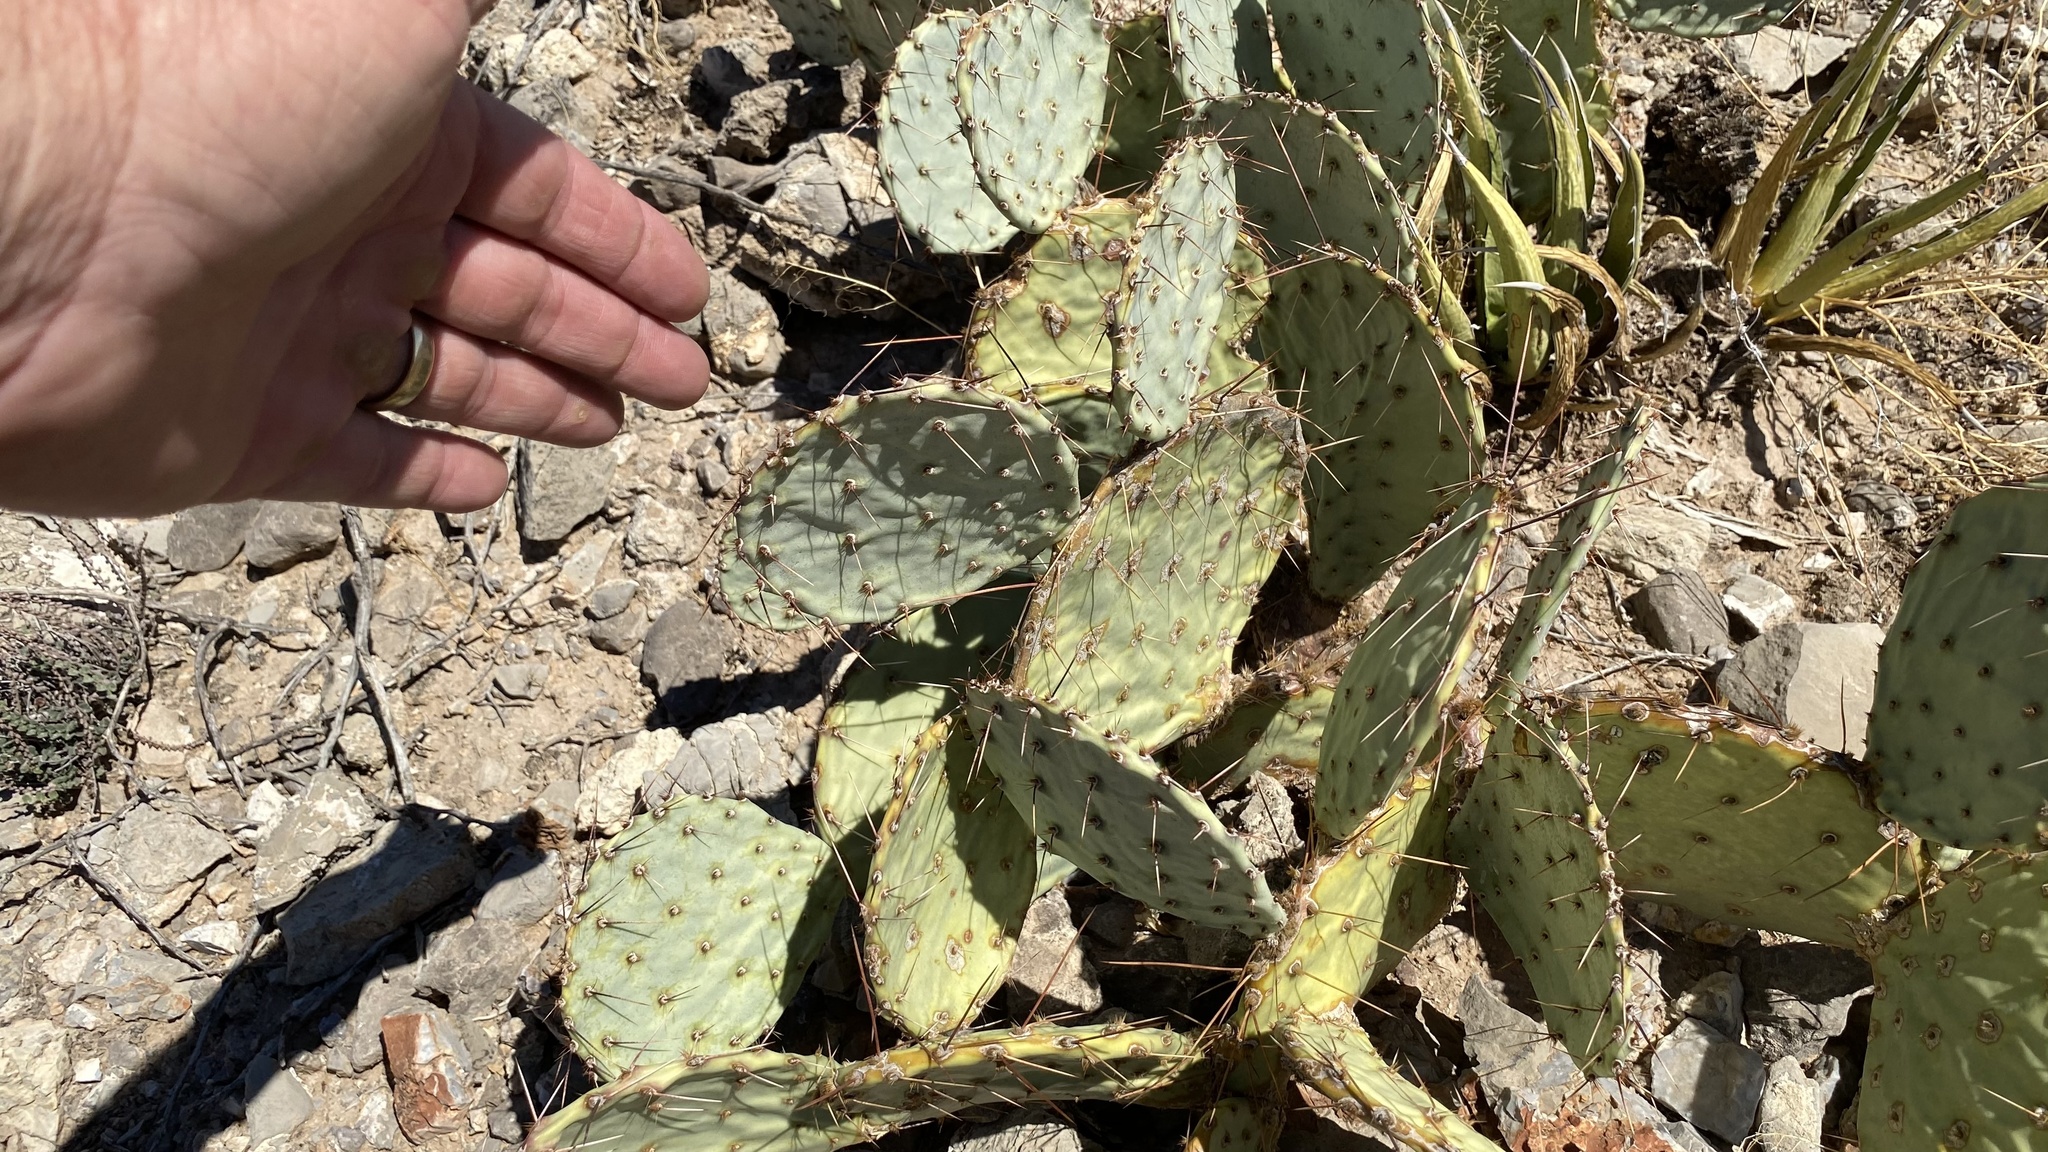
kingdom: Plantae
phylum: Tracheophyta
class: Magnoliopsida
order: Caryophyllales
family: Cactaceae
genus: Opuntia
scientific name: Opuntia phaeacantha
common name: New mexico prickly-pear
